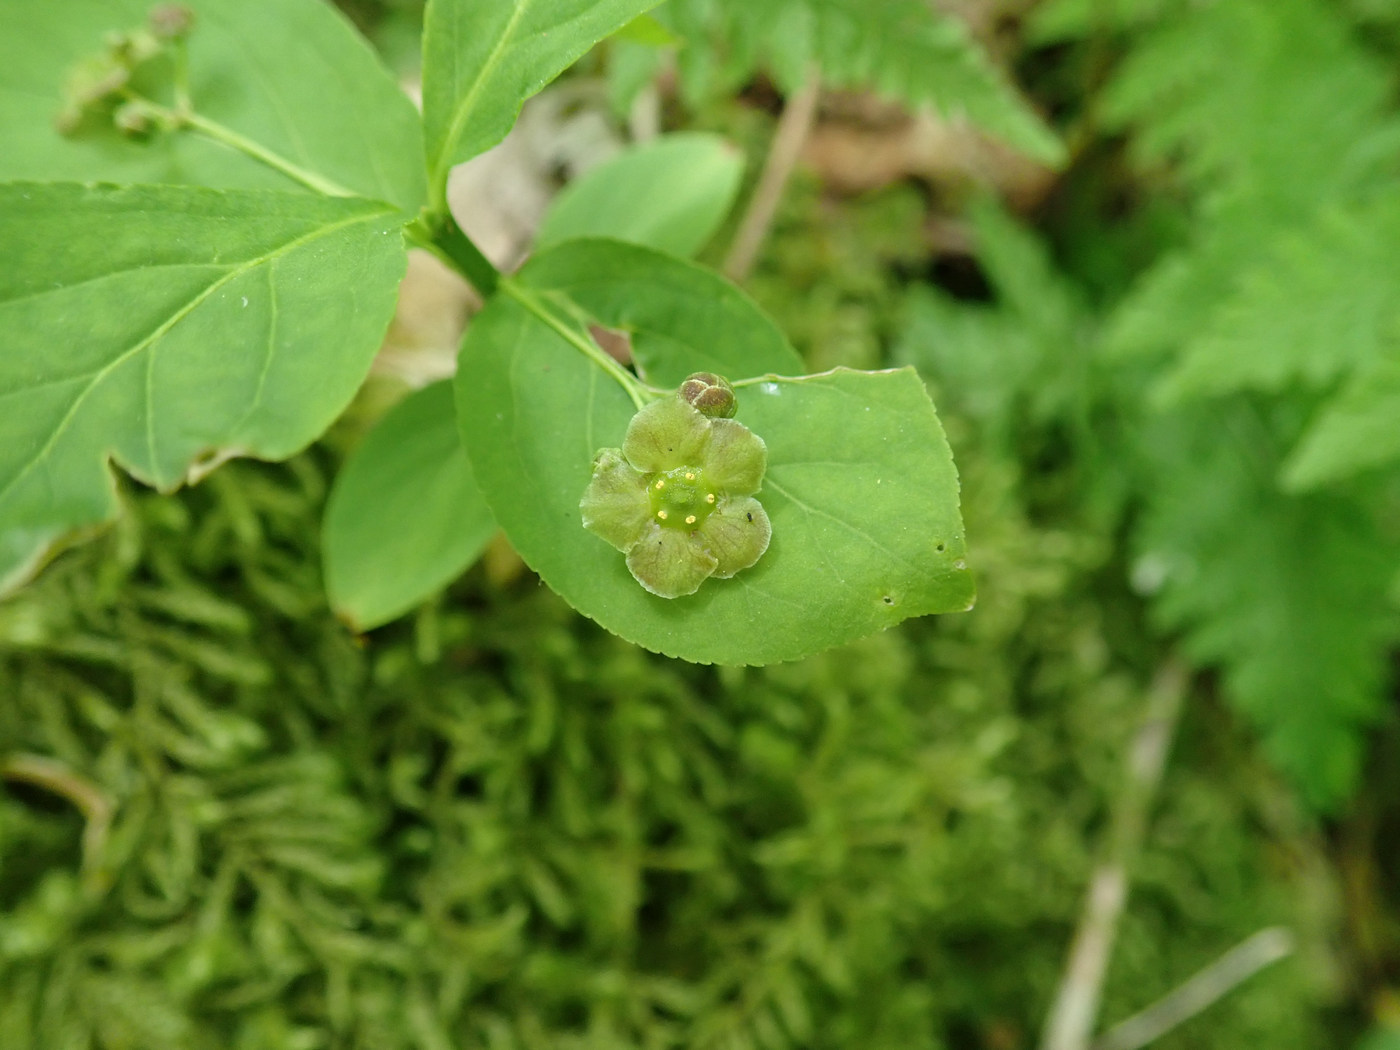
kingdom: Plantae
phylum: Tracheophyta
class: Magnoliopsida
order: Celastrales
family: Celastraceae
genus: Euonymus
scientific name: Euonymus obovatus
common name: Running strawberry-bush
